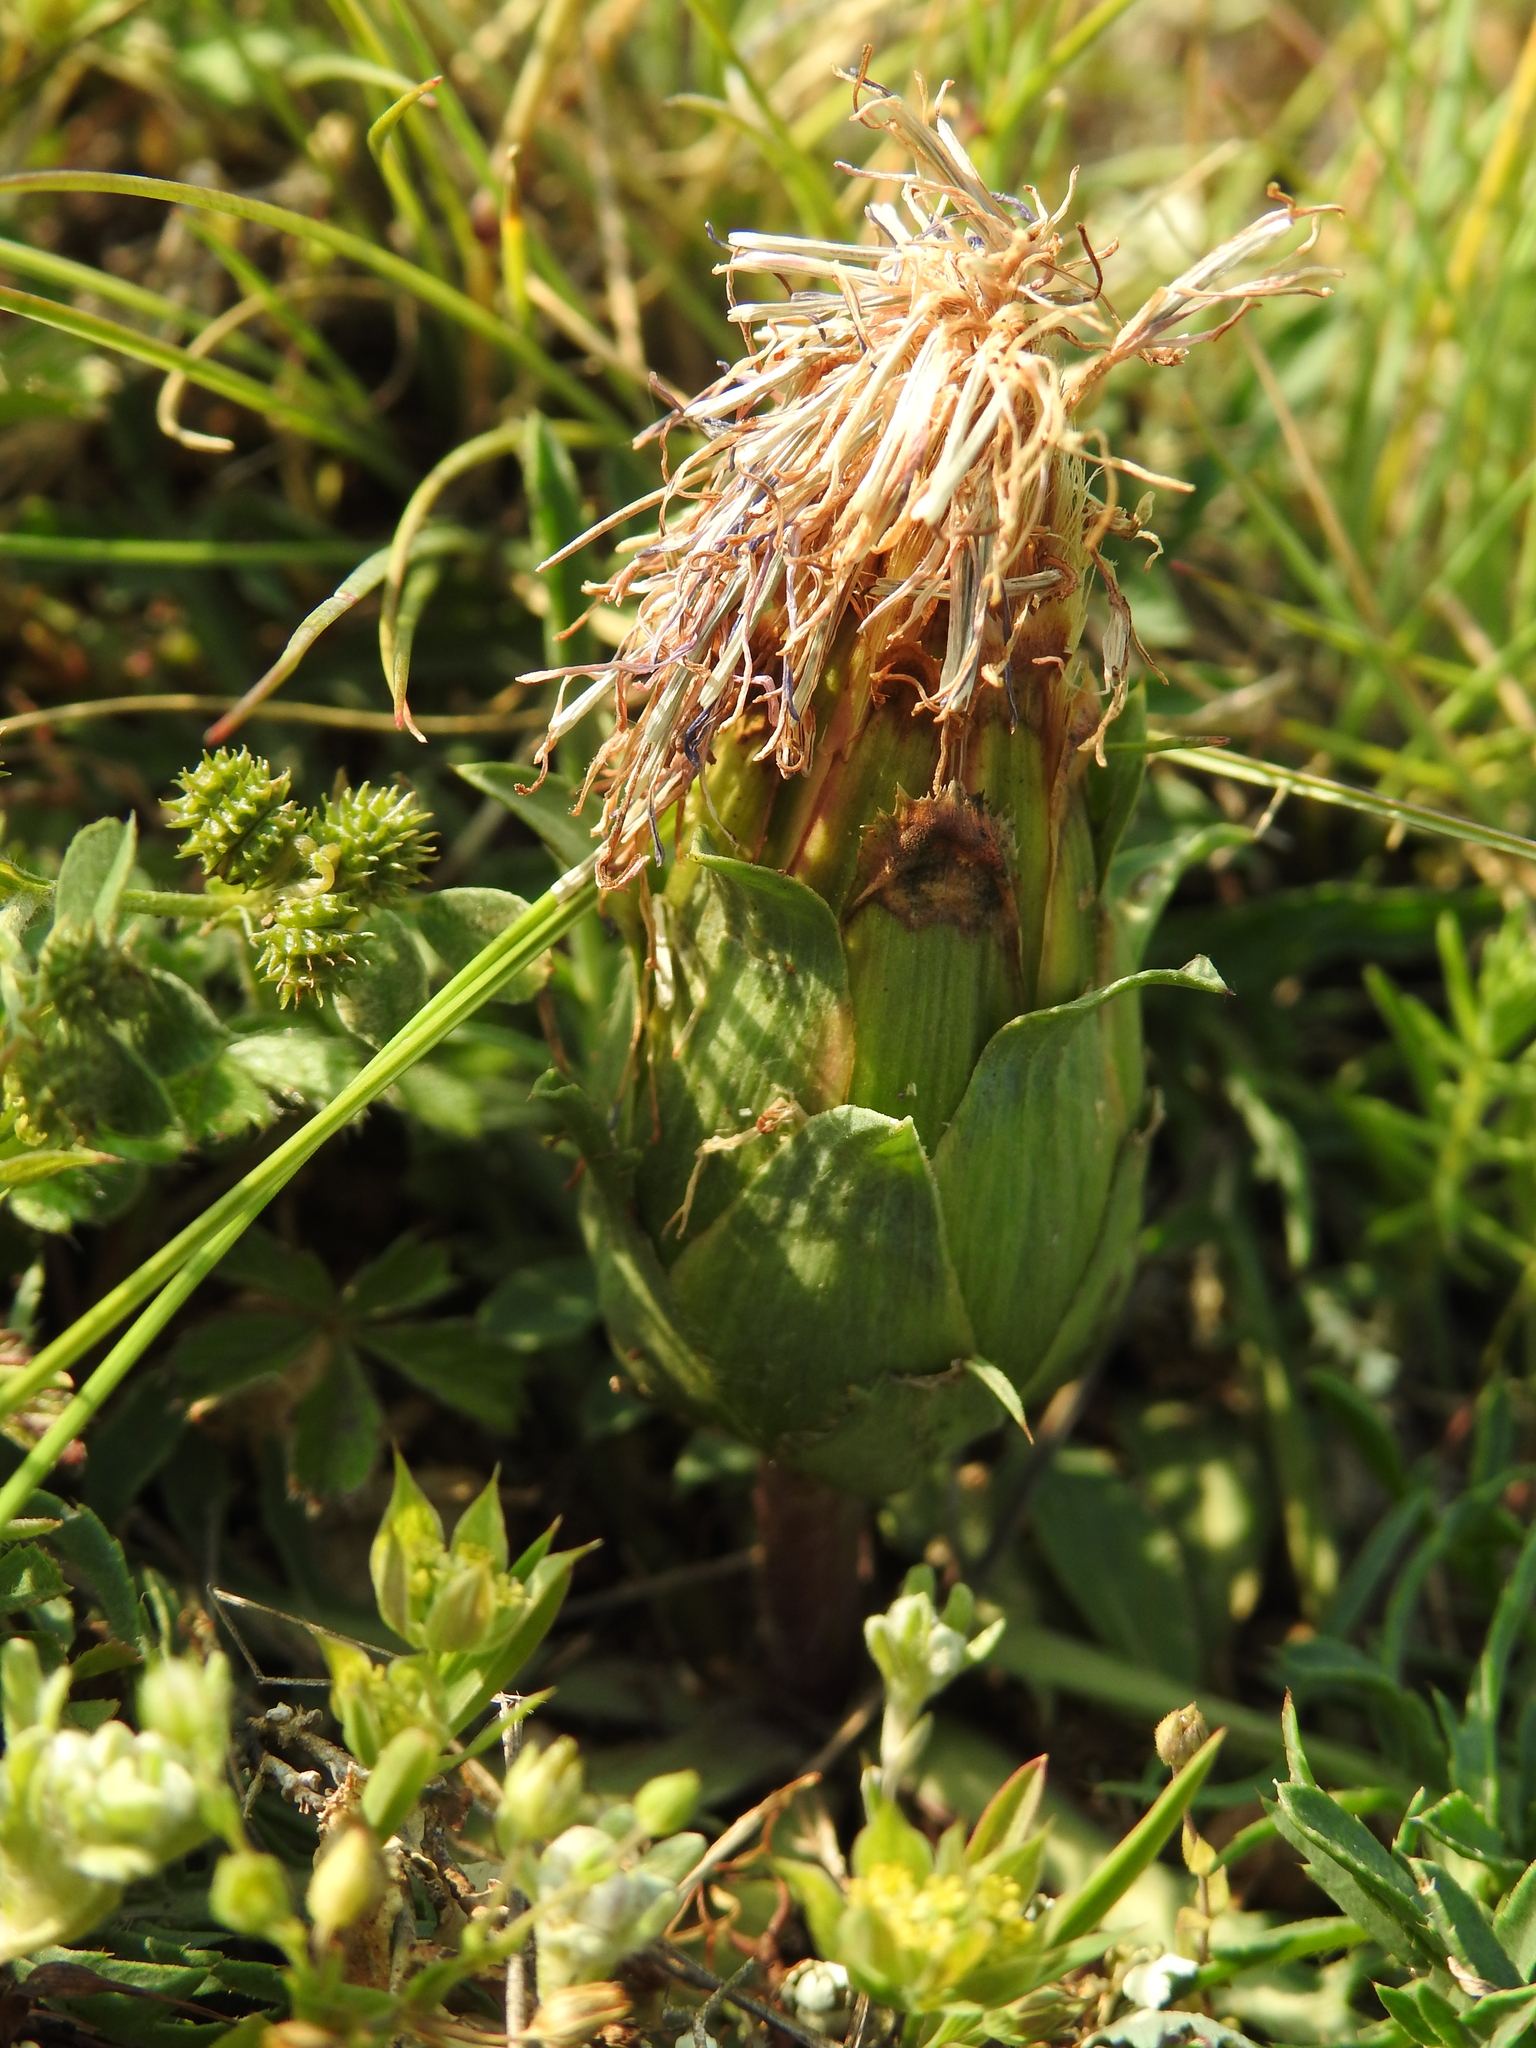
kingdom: Plantae
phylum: Tracheophyta
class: Magnoliopsida
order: Asterales
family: Asteraceae
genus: Carduncellus
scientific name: Carduncellus mitissimus
